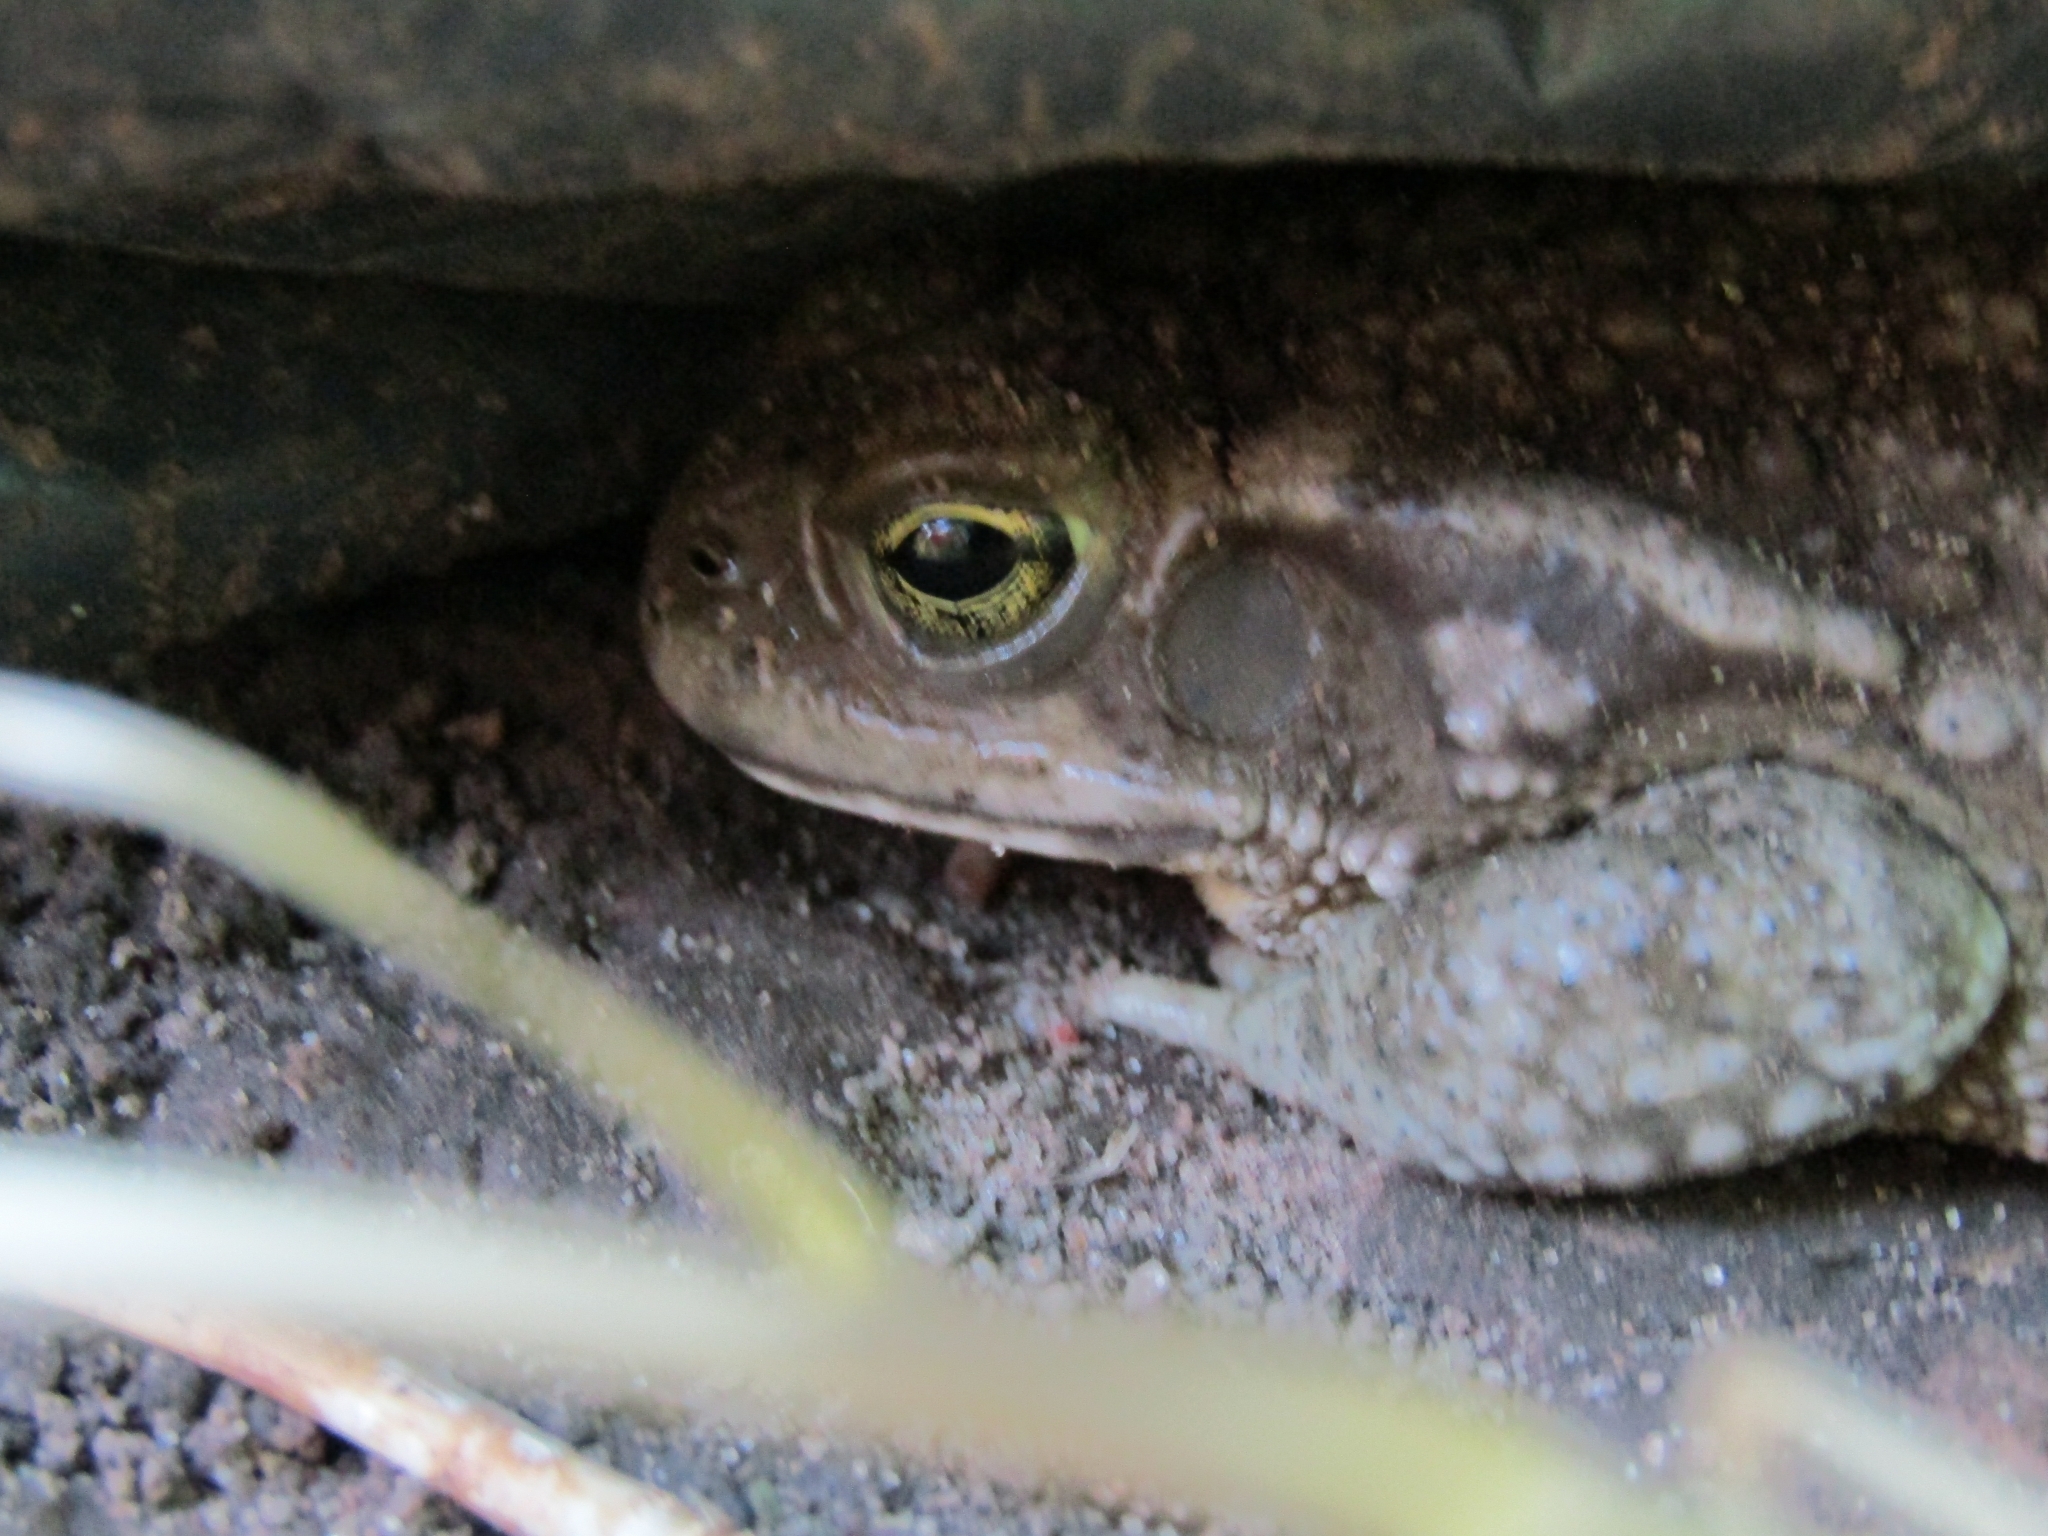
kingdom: Animalia
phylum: Chordata
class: Amphibia
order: Anura
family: Bufonidae
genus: Rhinella
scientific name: Rhinella arenarum
